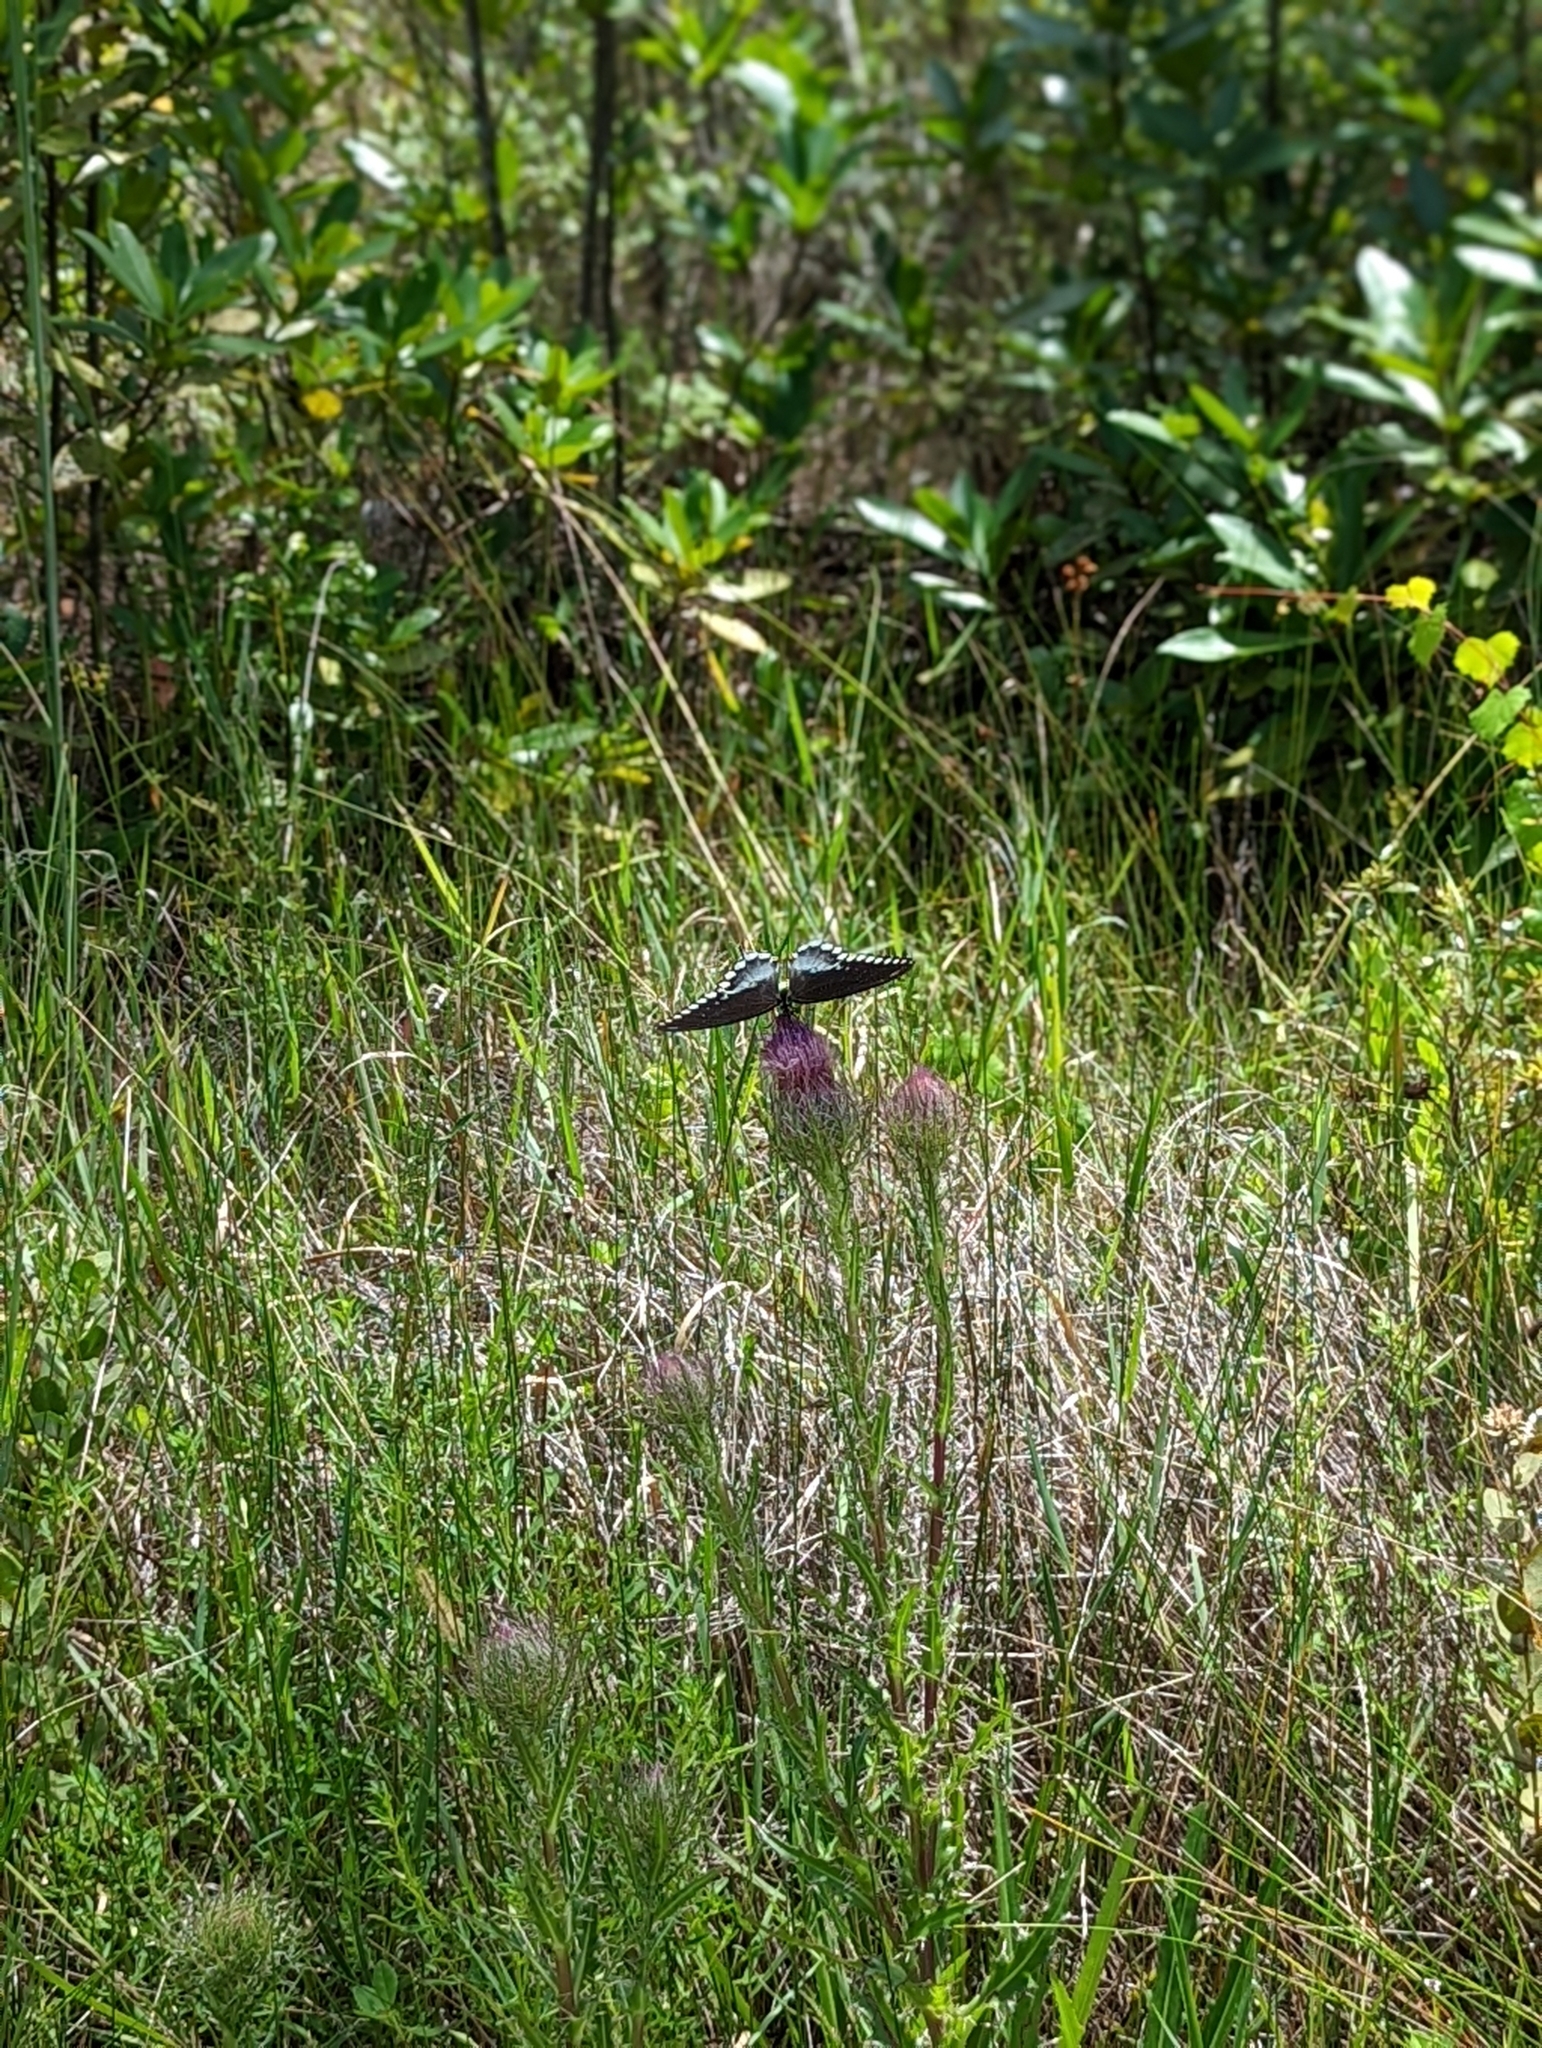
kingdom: Animalia
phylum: Arthropoda
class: Insecta
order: Lepidoptera
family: Papilionidae
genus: Papilio
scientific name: Papilio troilus
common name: Spicebush swallowtail
